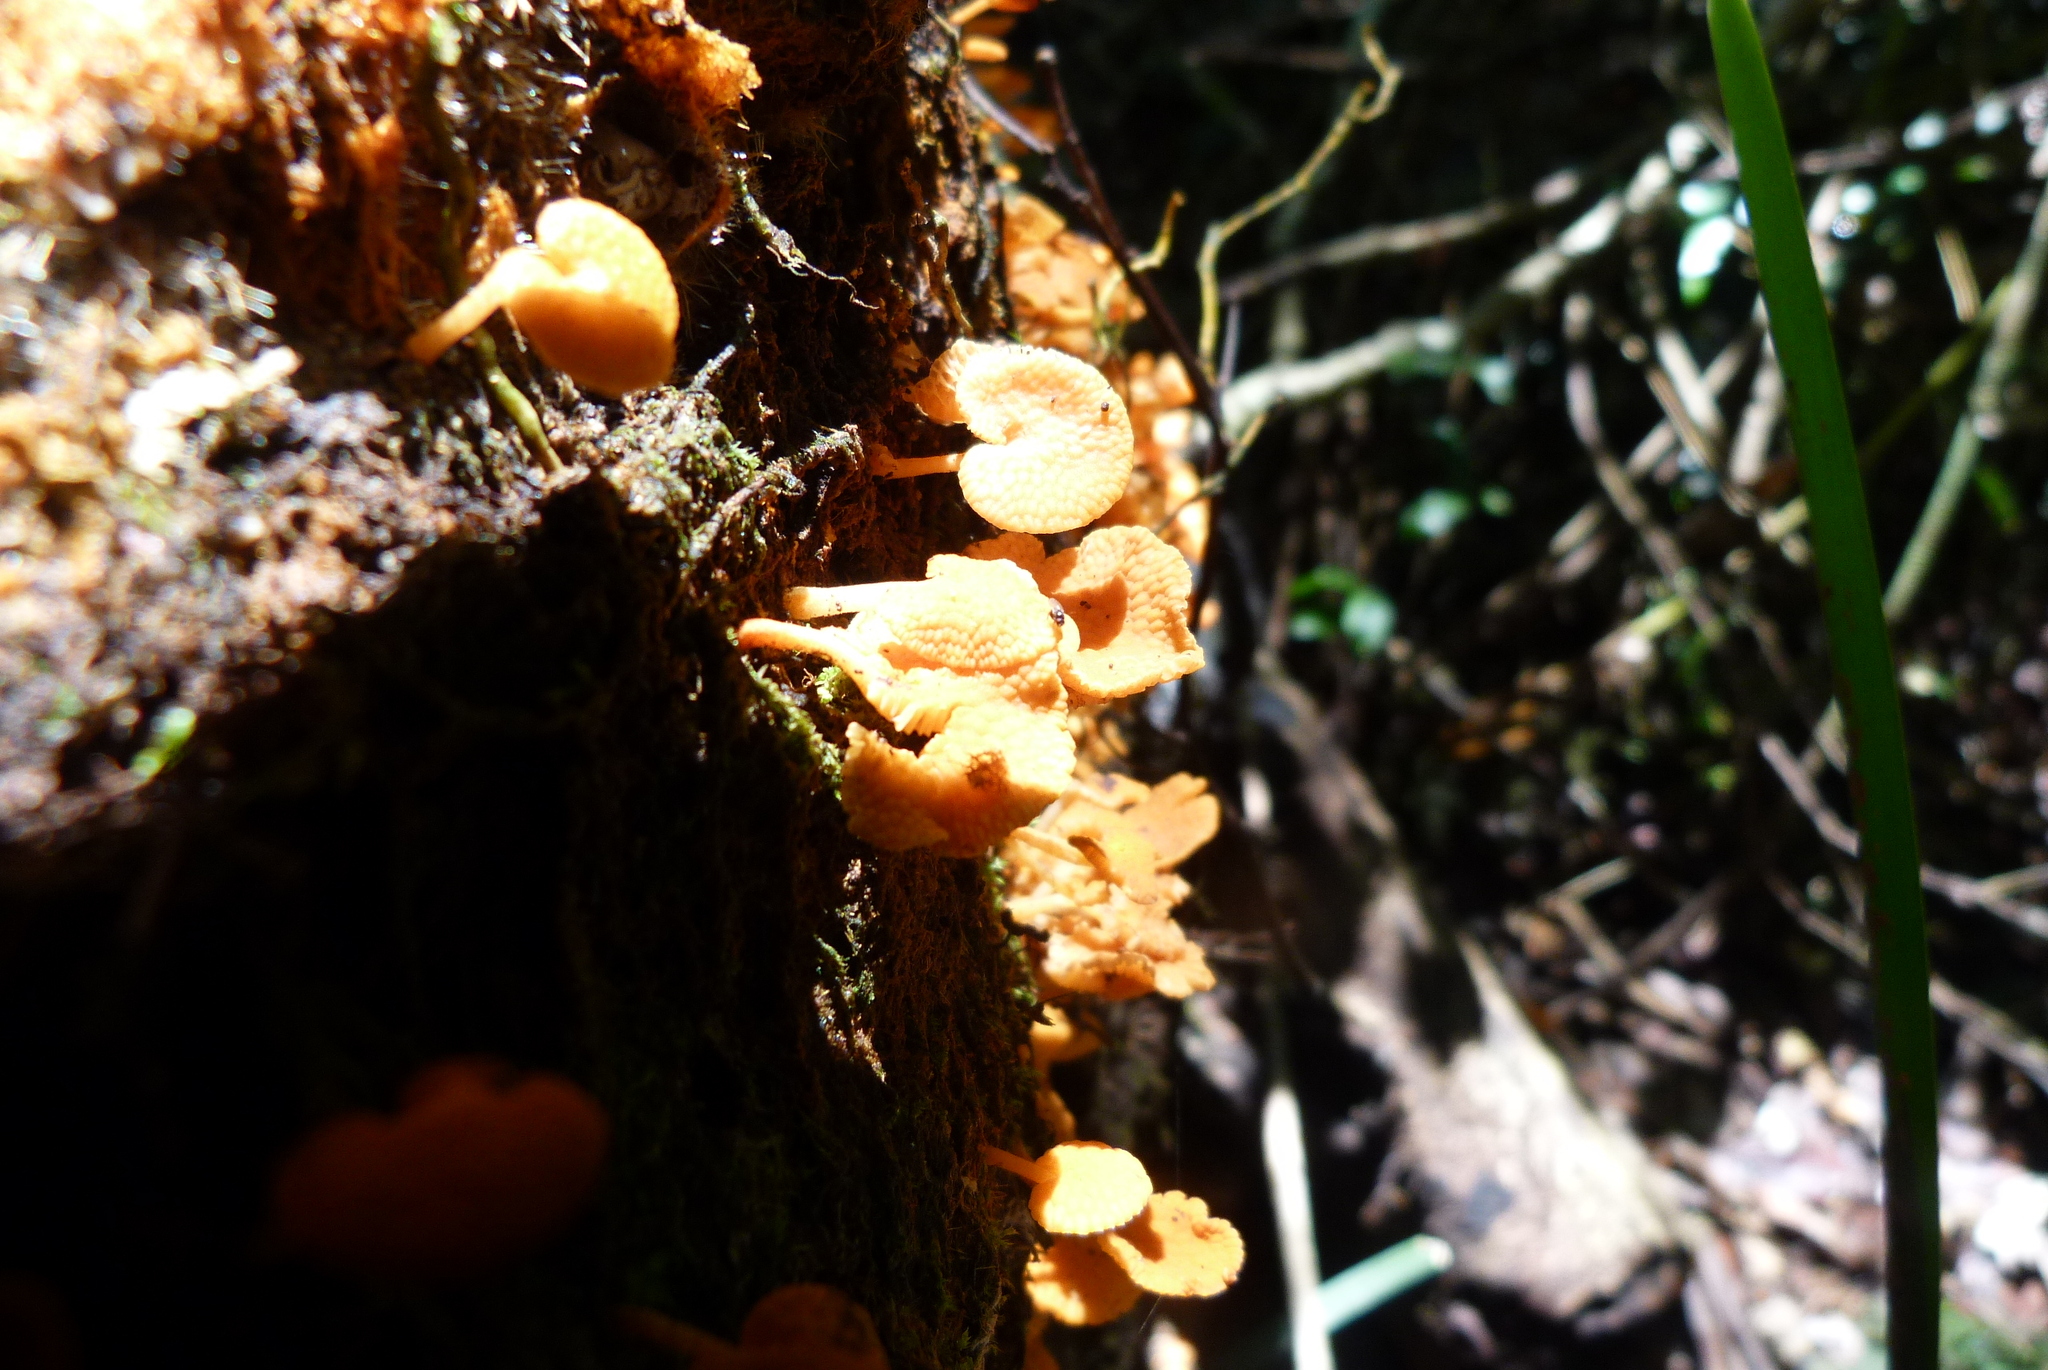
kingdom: Fungi
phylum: Basidiomycota
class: Agaricomycetes
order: Agaricales
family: Mycenaceae
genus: Favolaschia
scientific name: Favolaschia claudopus
